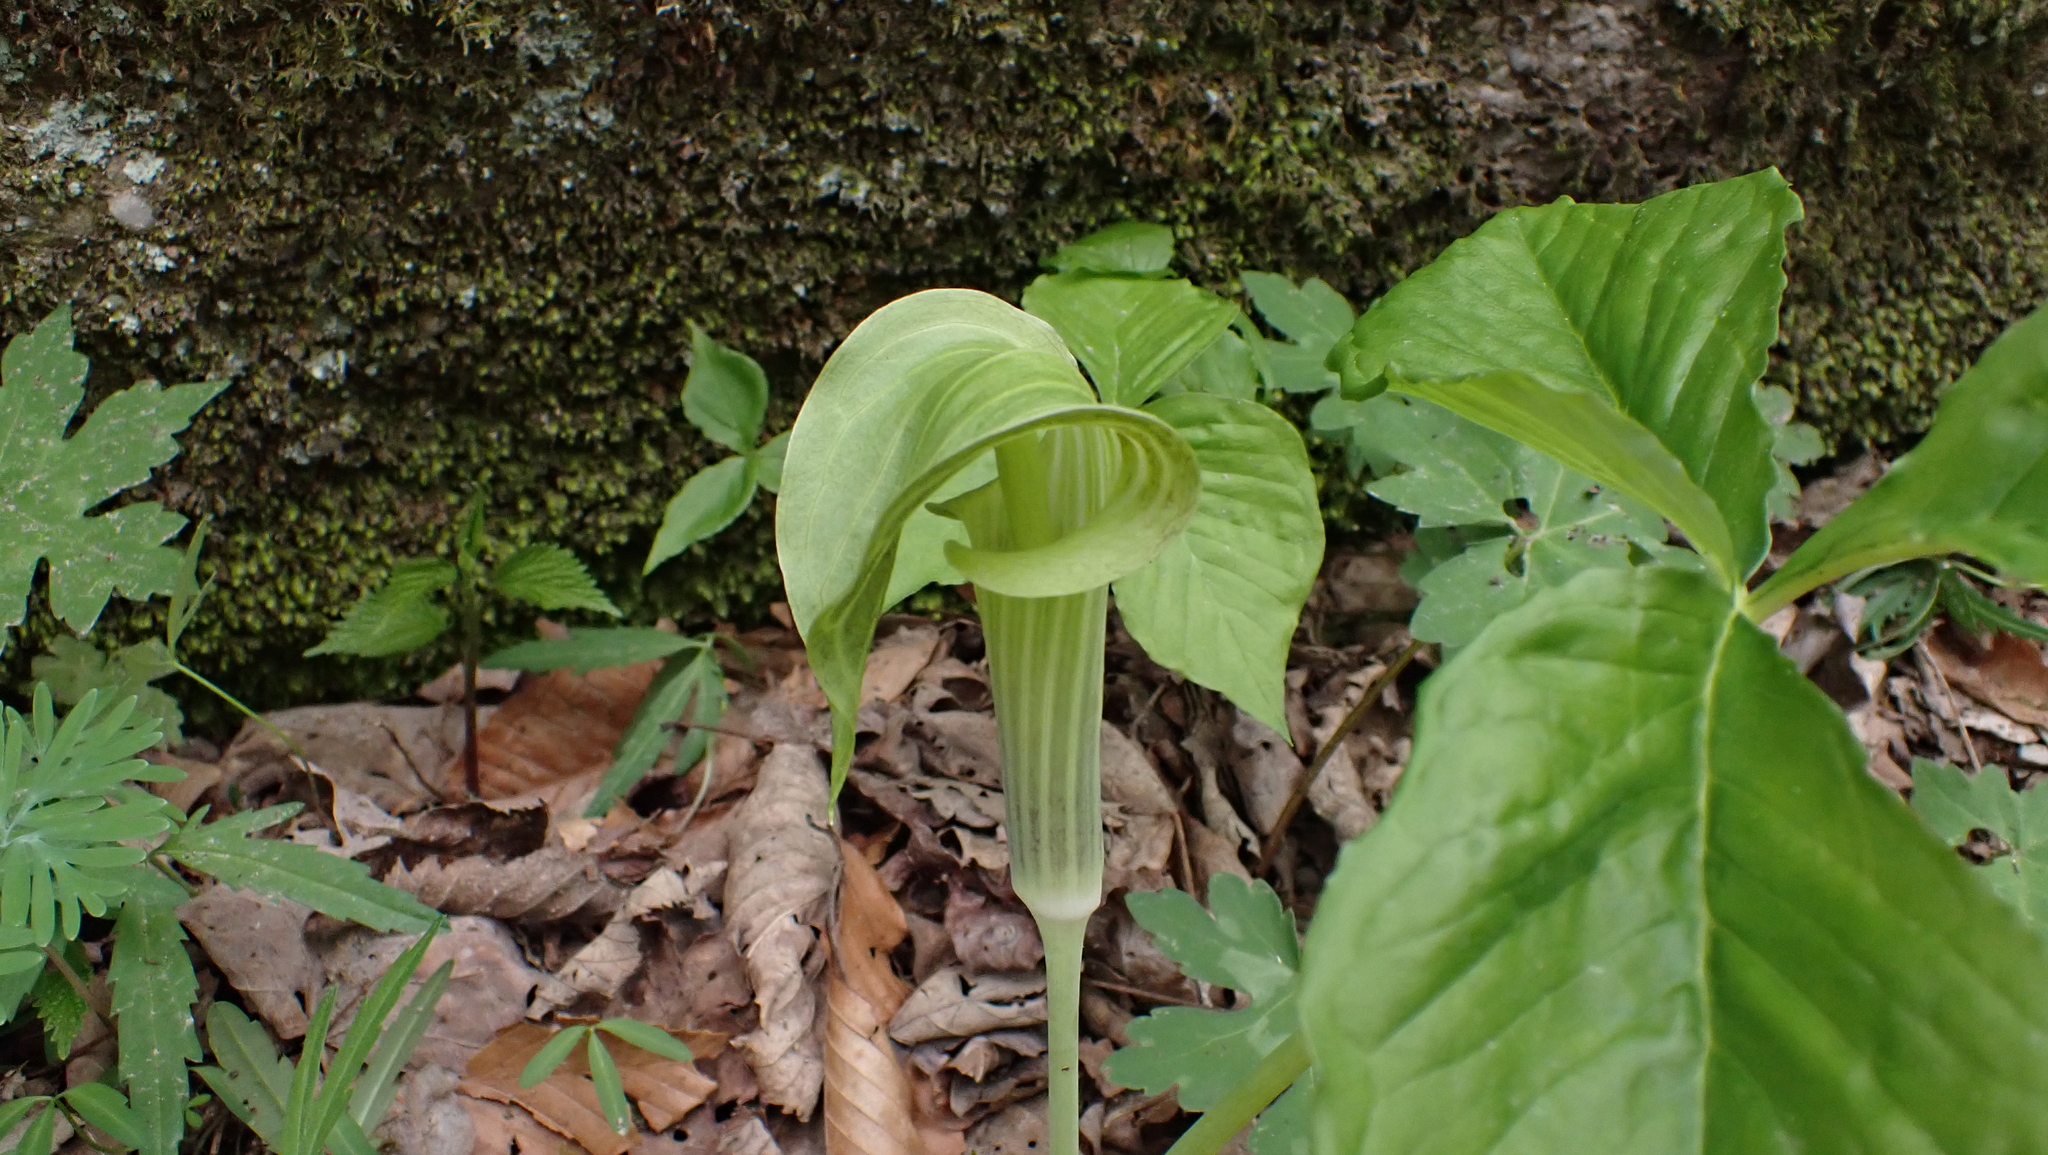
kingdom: Plantae
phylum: Tracheophyta
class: Liliopsida
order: Alismatales
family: Araceae
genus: Arisaema
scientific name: Arisaema triphyllum
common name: Jack-in-the-pulpit
